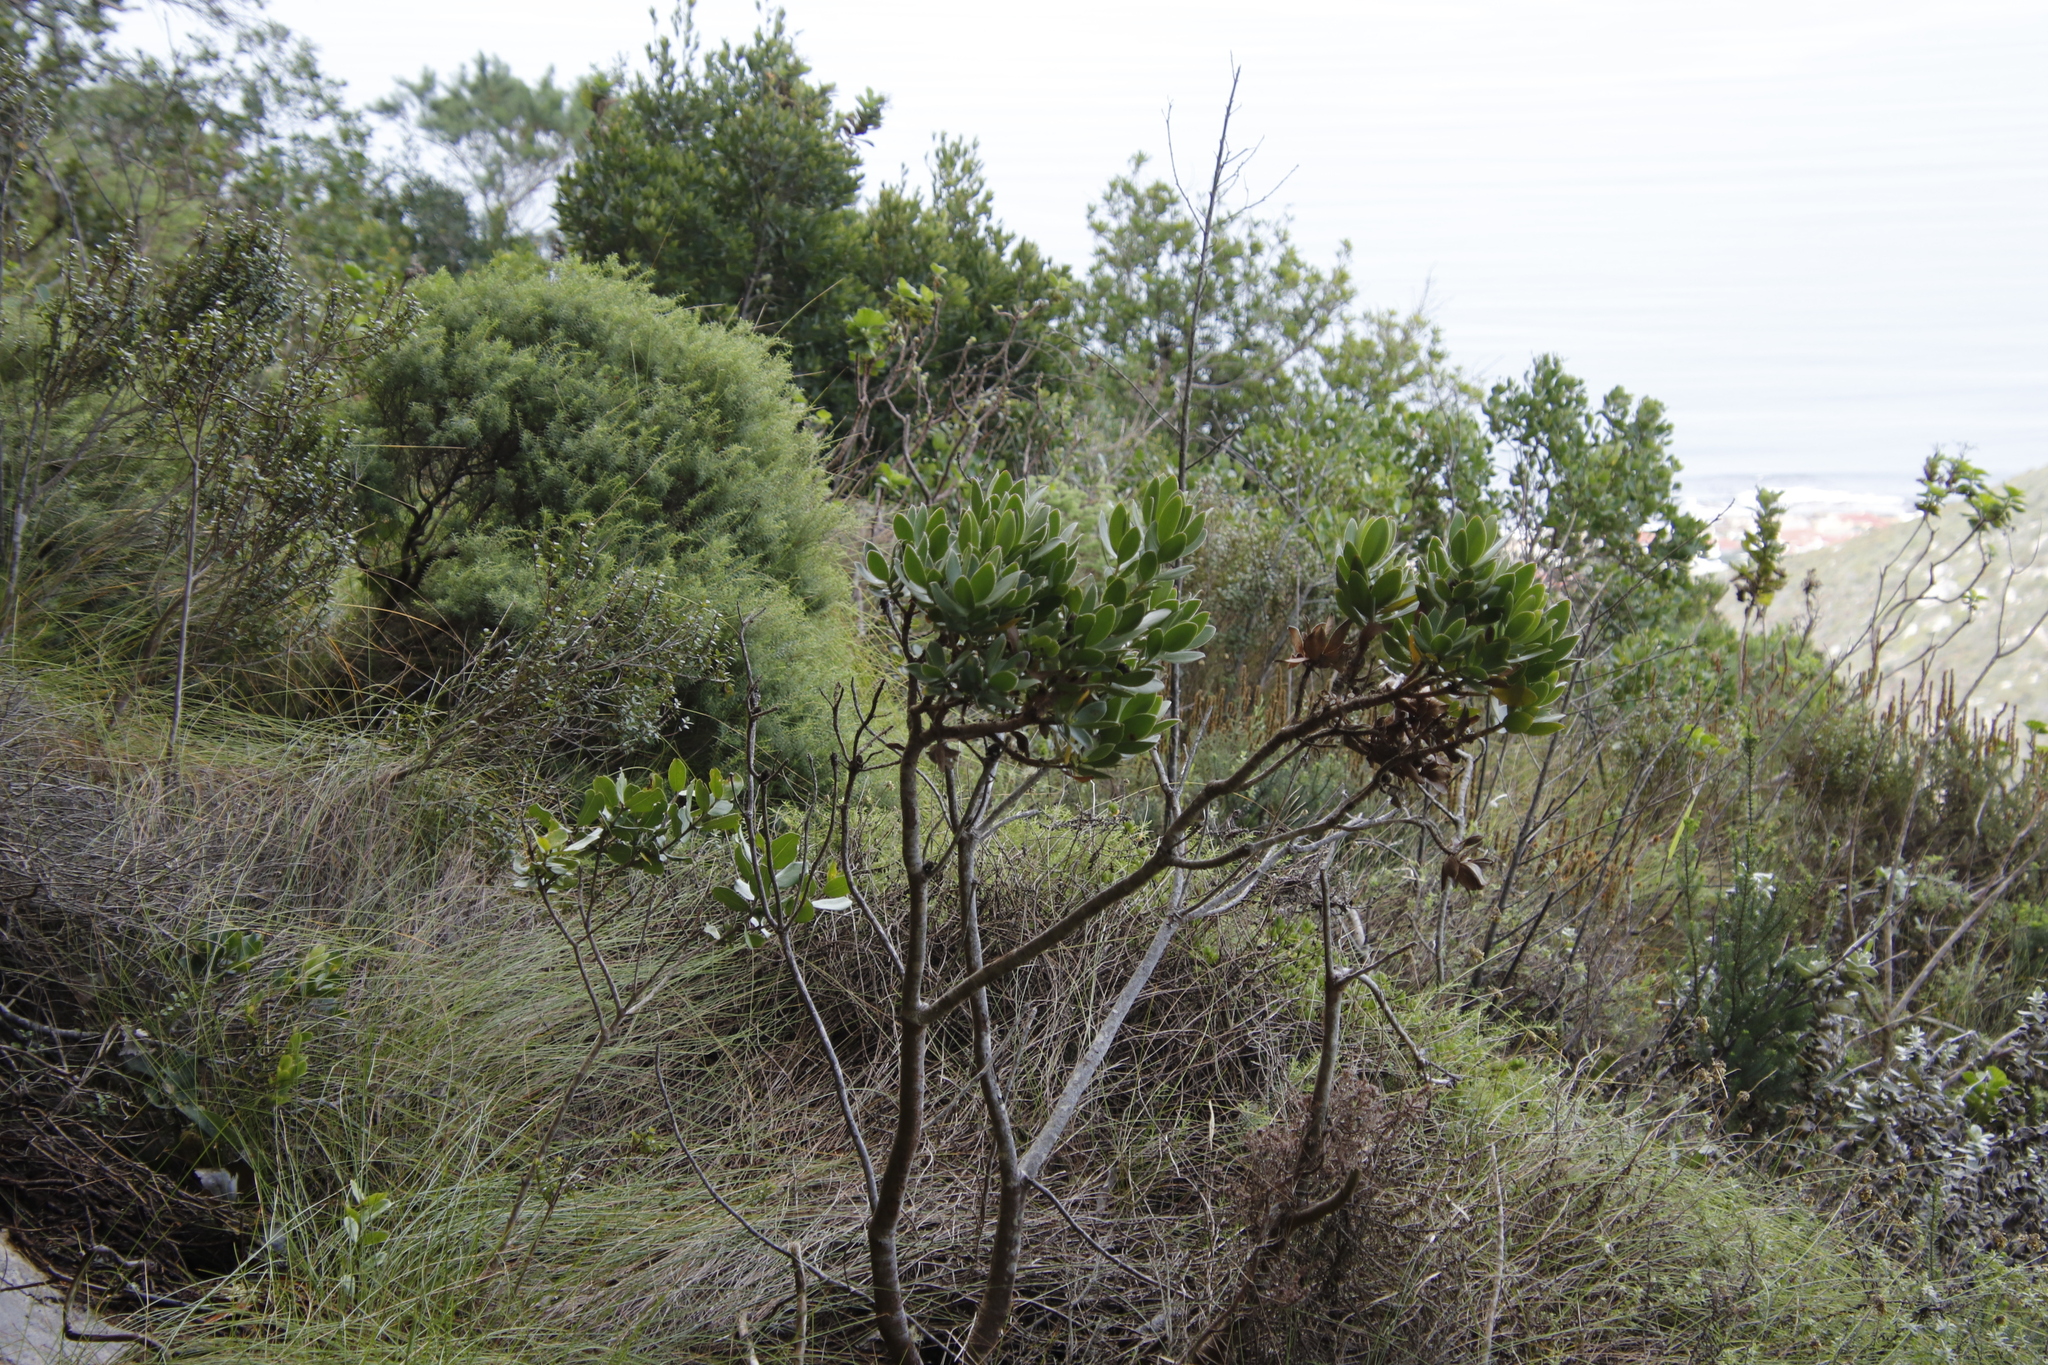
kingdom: Plantae
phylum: Tracheophyta
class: Magnoliopsida
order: Proteales
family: Proteaceae
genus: Leucadendron
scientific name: Leucadendron strobilinum
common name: Mountain rose
